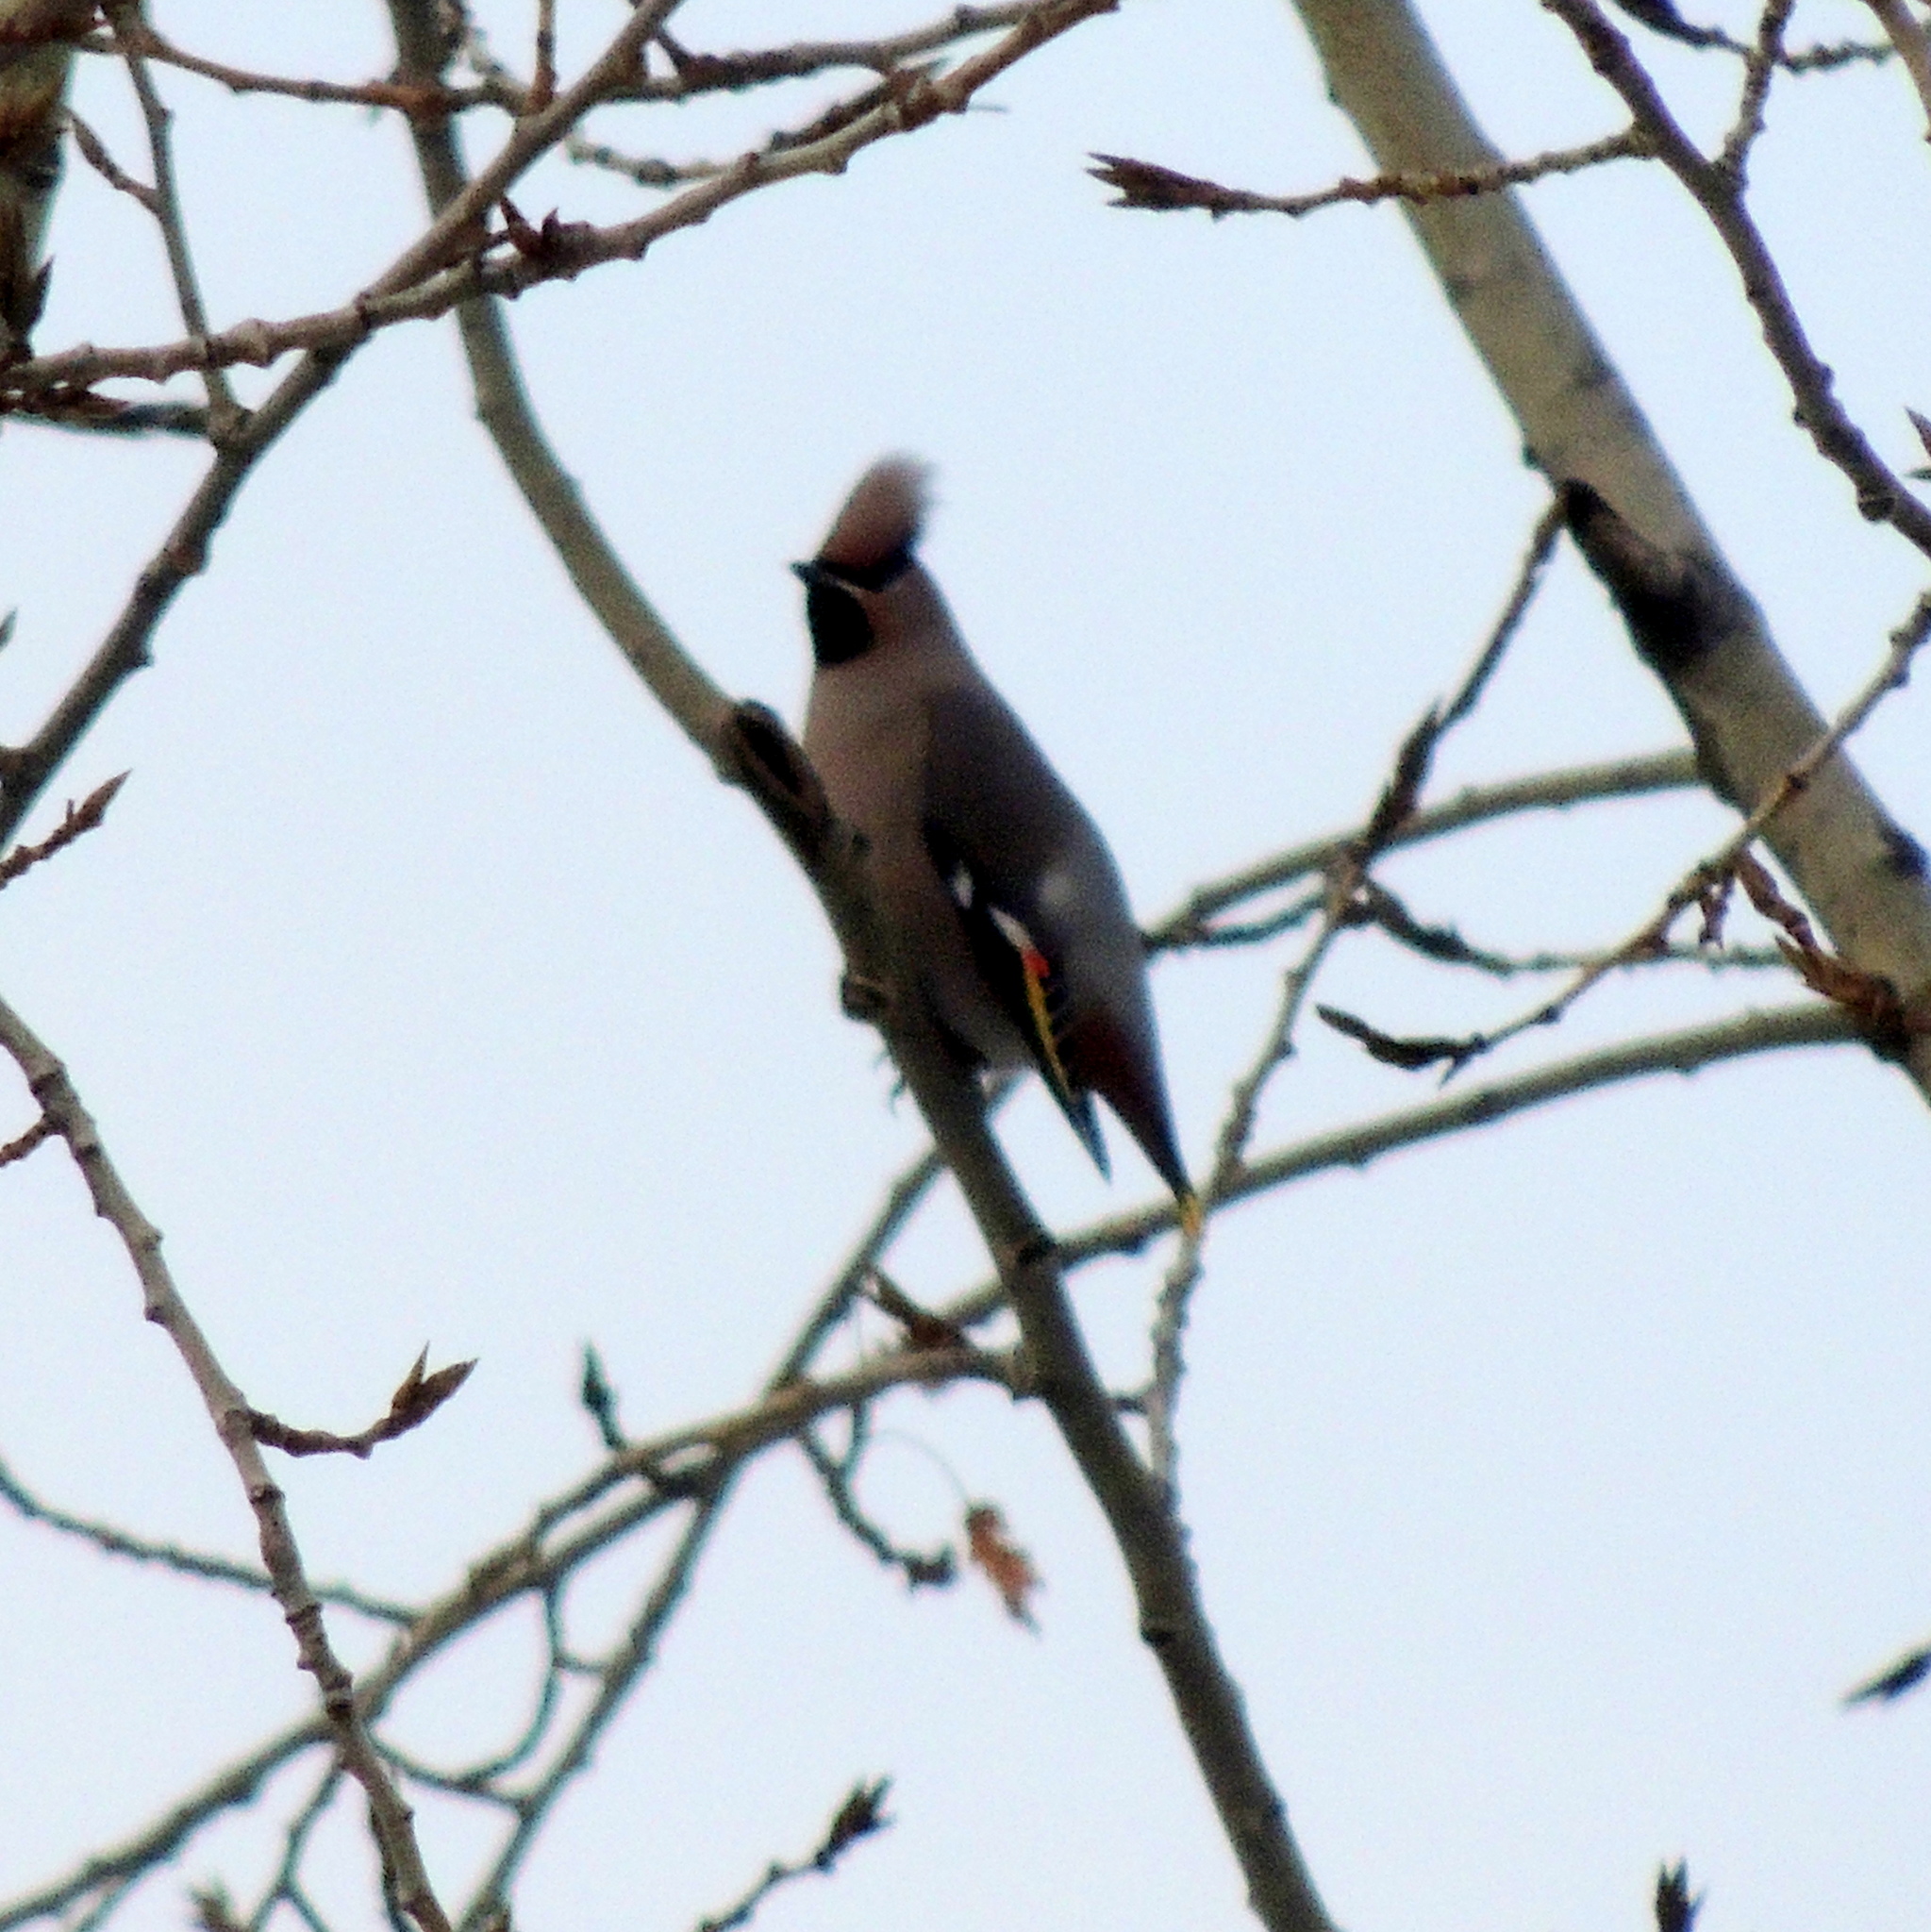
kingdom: Animalia
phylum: Chordata
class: Aves
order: Passeriformes
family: Bombycillidae
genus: Bombycilla
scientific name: Bombycilla garrulus
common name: Bohemian waxwing
